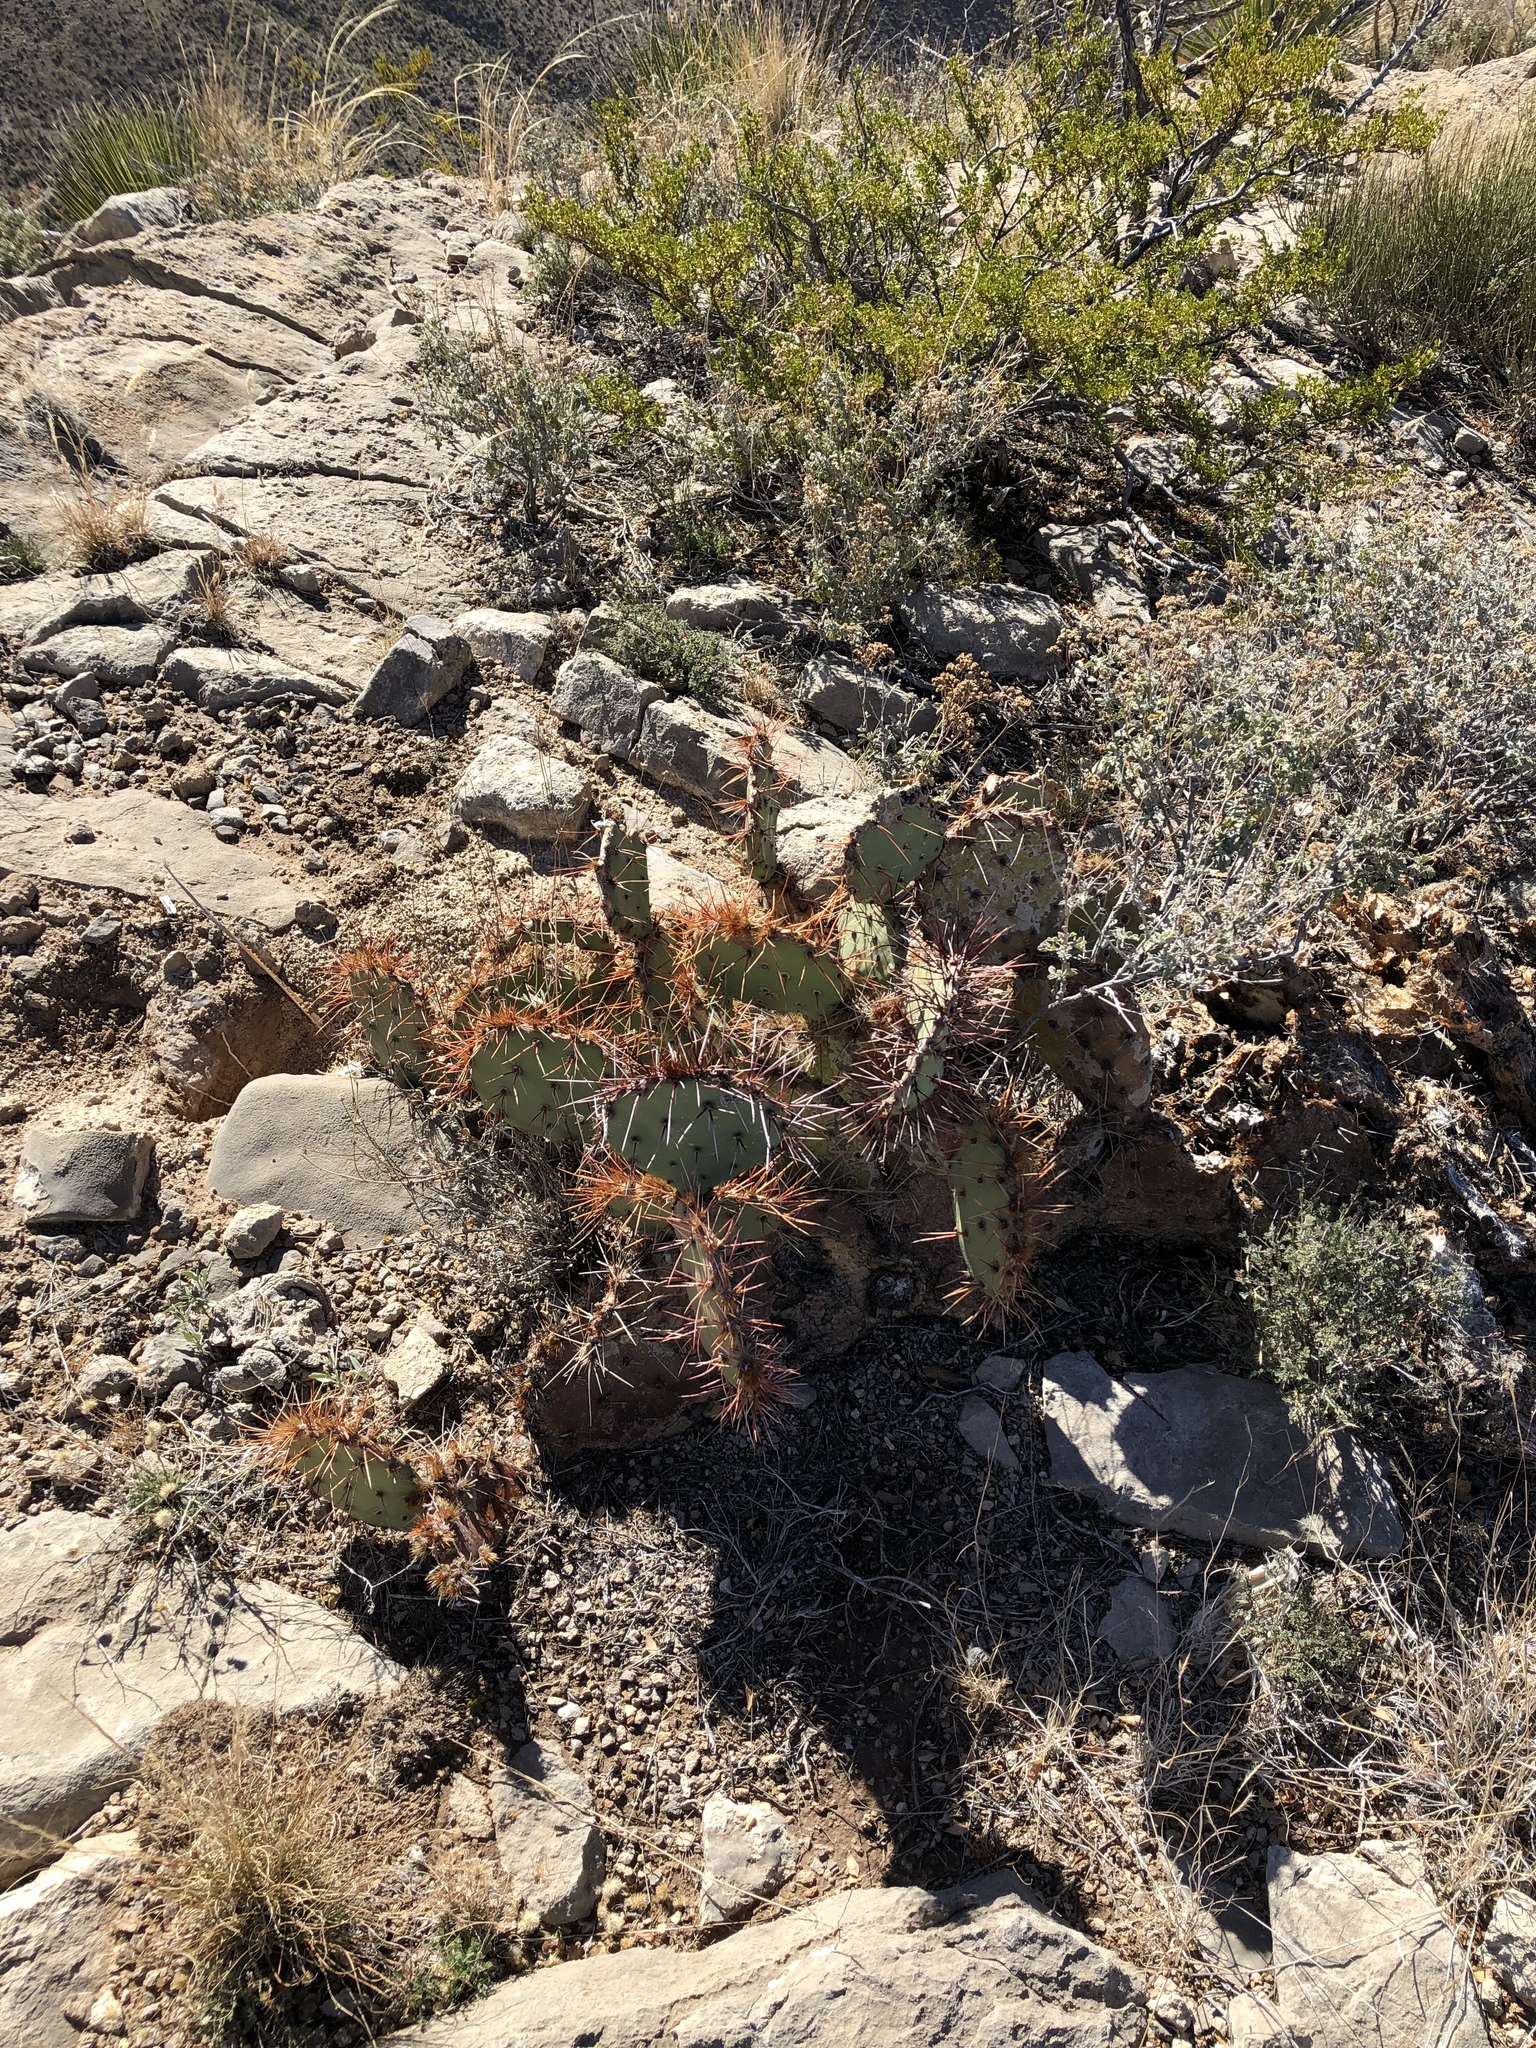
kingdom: Plantae
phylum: Tracheophyta
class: Magnoliopsida
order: Caryophyllales
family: Cactaceae
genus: Opuntia
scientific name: Opuntia phaeacantha
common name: New mexico prickly-pear
